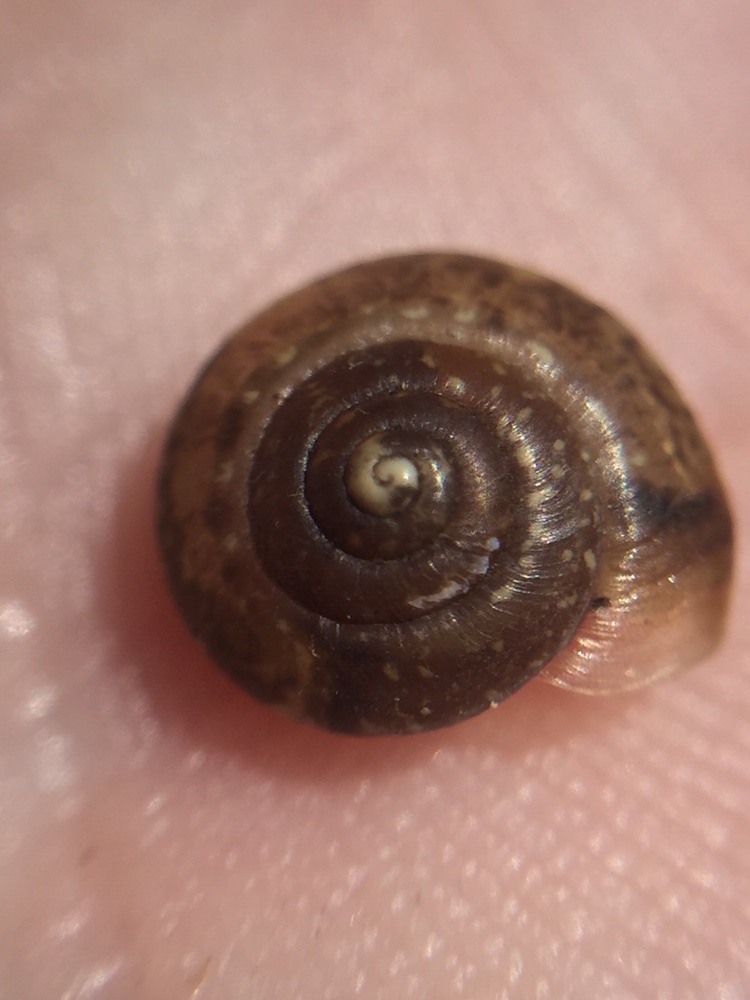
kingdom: Animalia
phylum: Mollusca
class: Gastropoda
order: Stylommatophora
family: Hygromiidae
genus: Hygromia
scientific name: Hygromia cinctella
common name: Girdled snail
